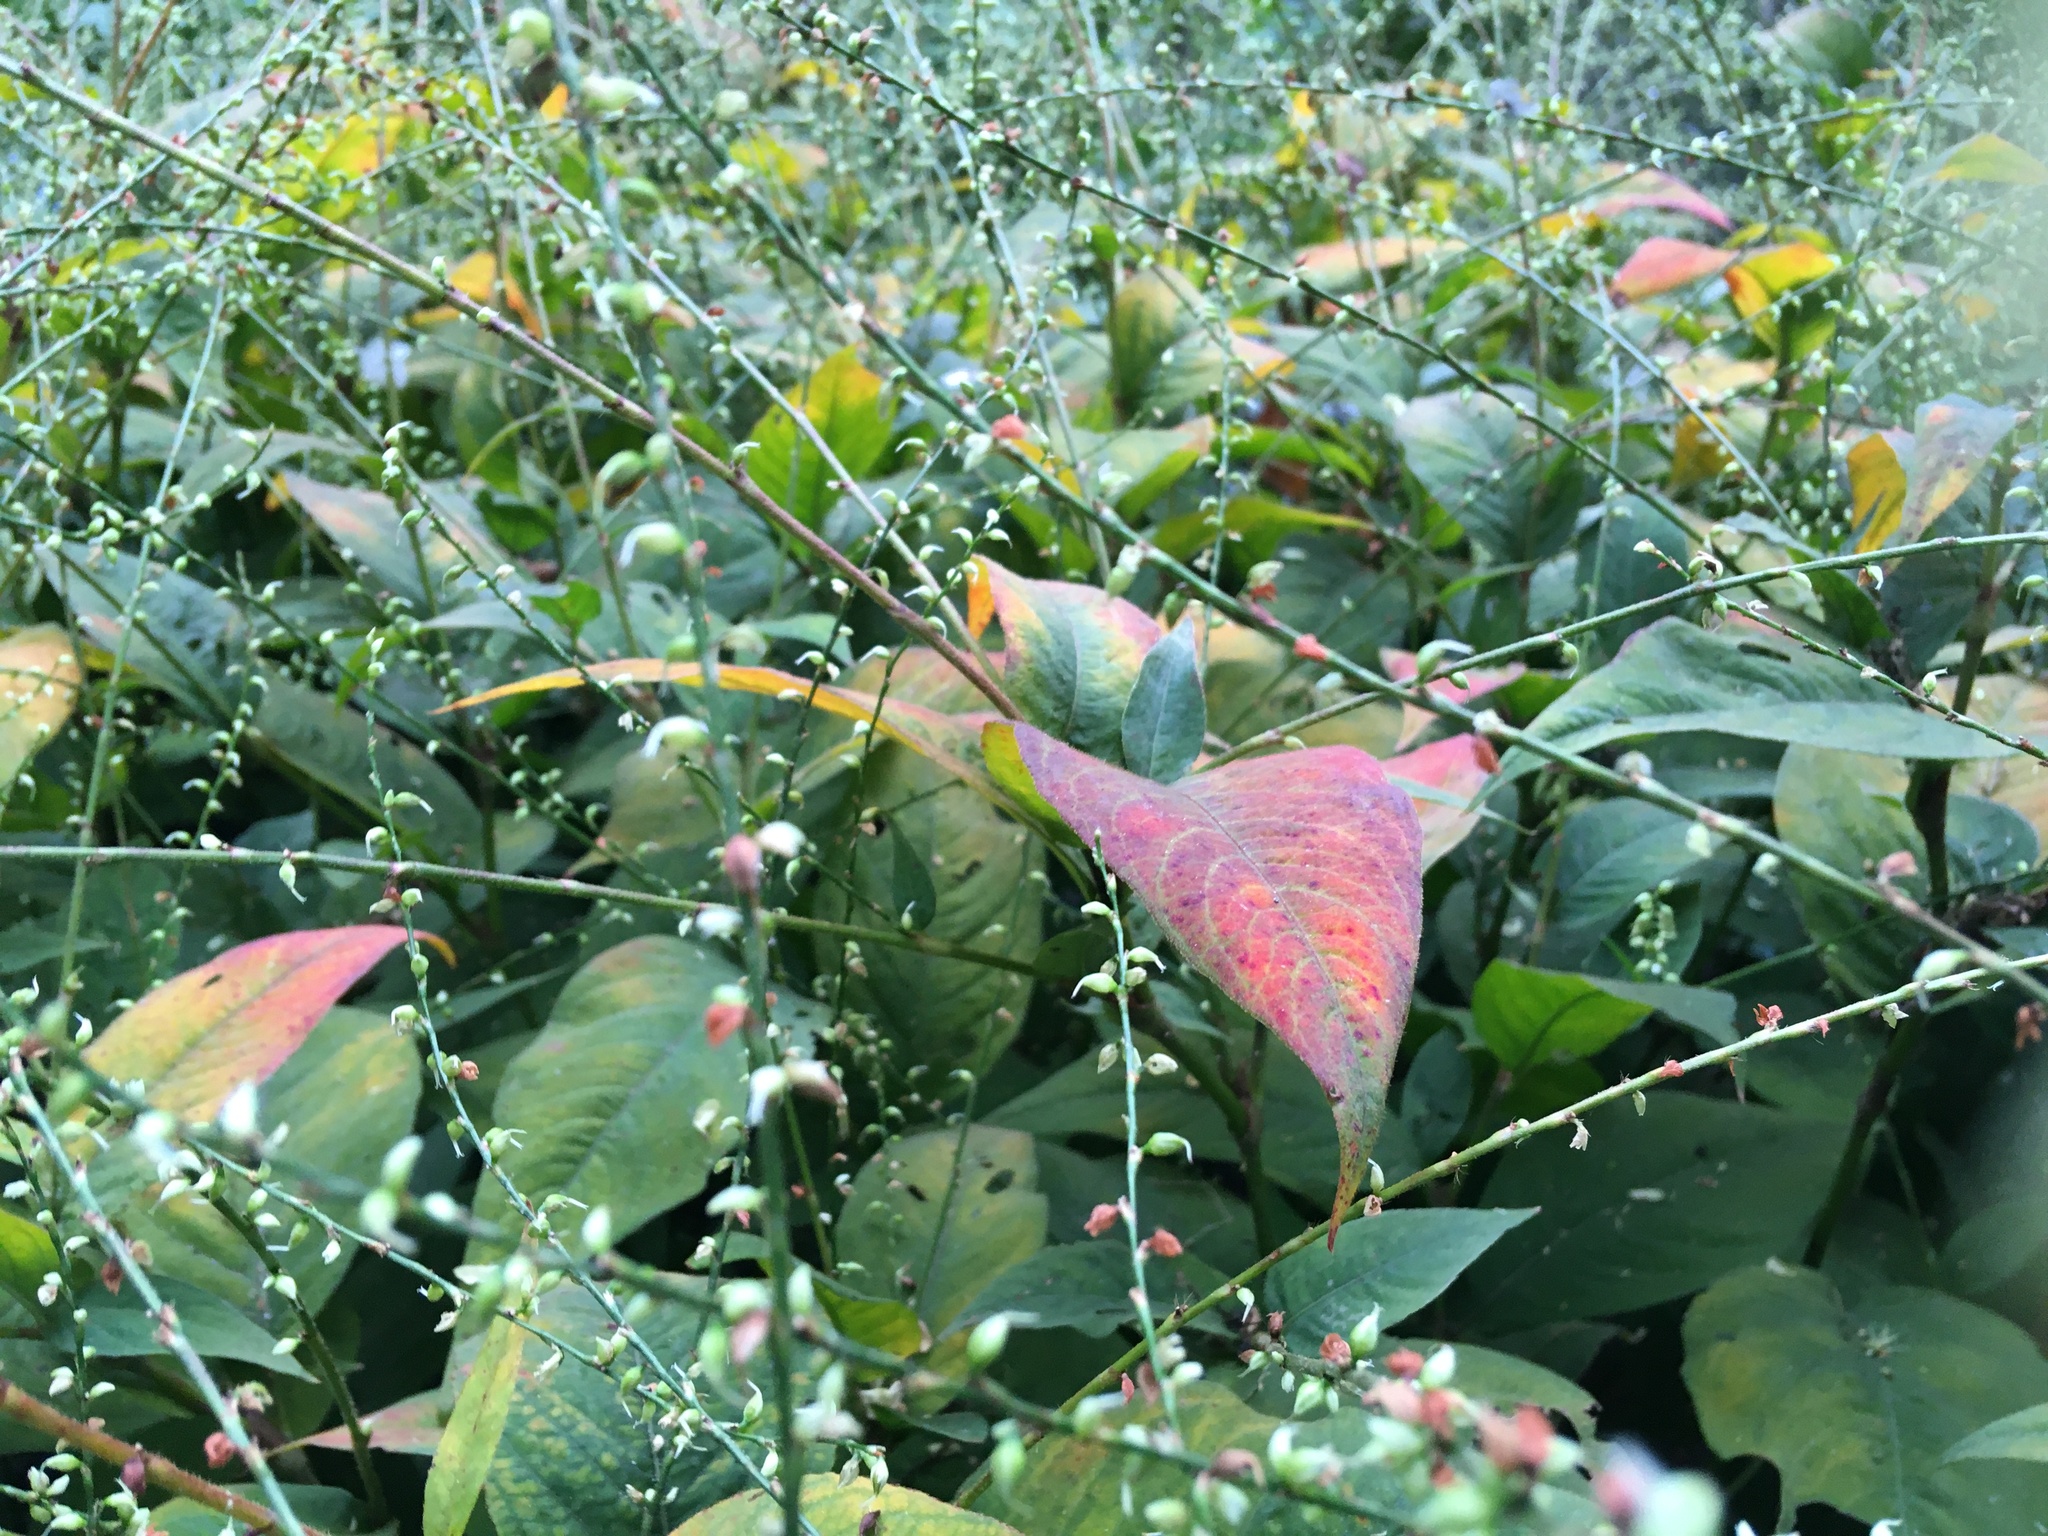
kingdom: Plantae
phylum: Tracheophyta
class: Magnoliopsida
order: Caryophyllales
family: Polygonaceae
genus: Persicaria
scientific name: Persicaria virginiana
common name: Jumpseed
